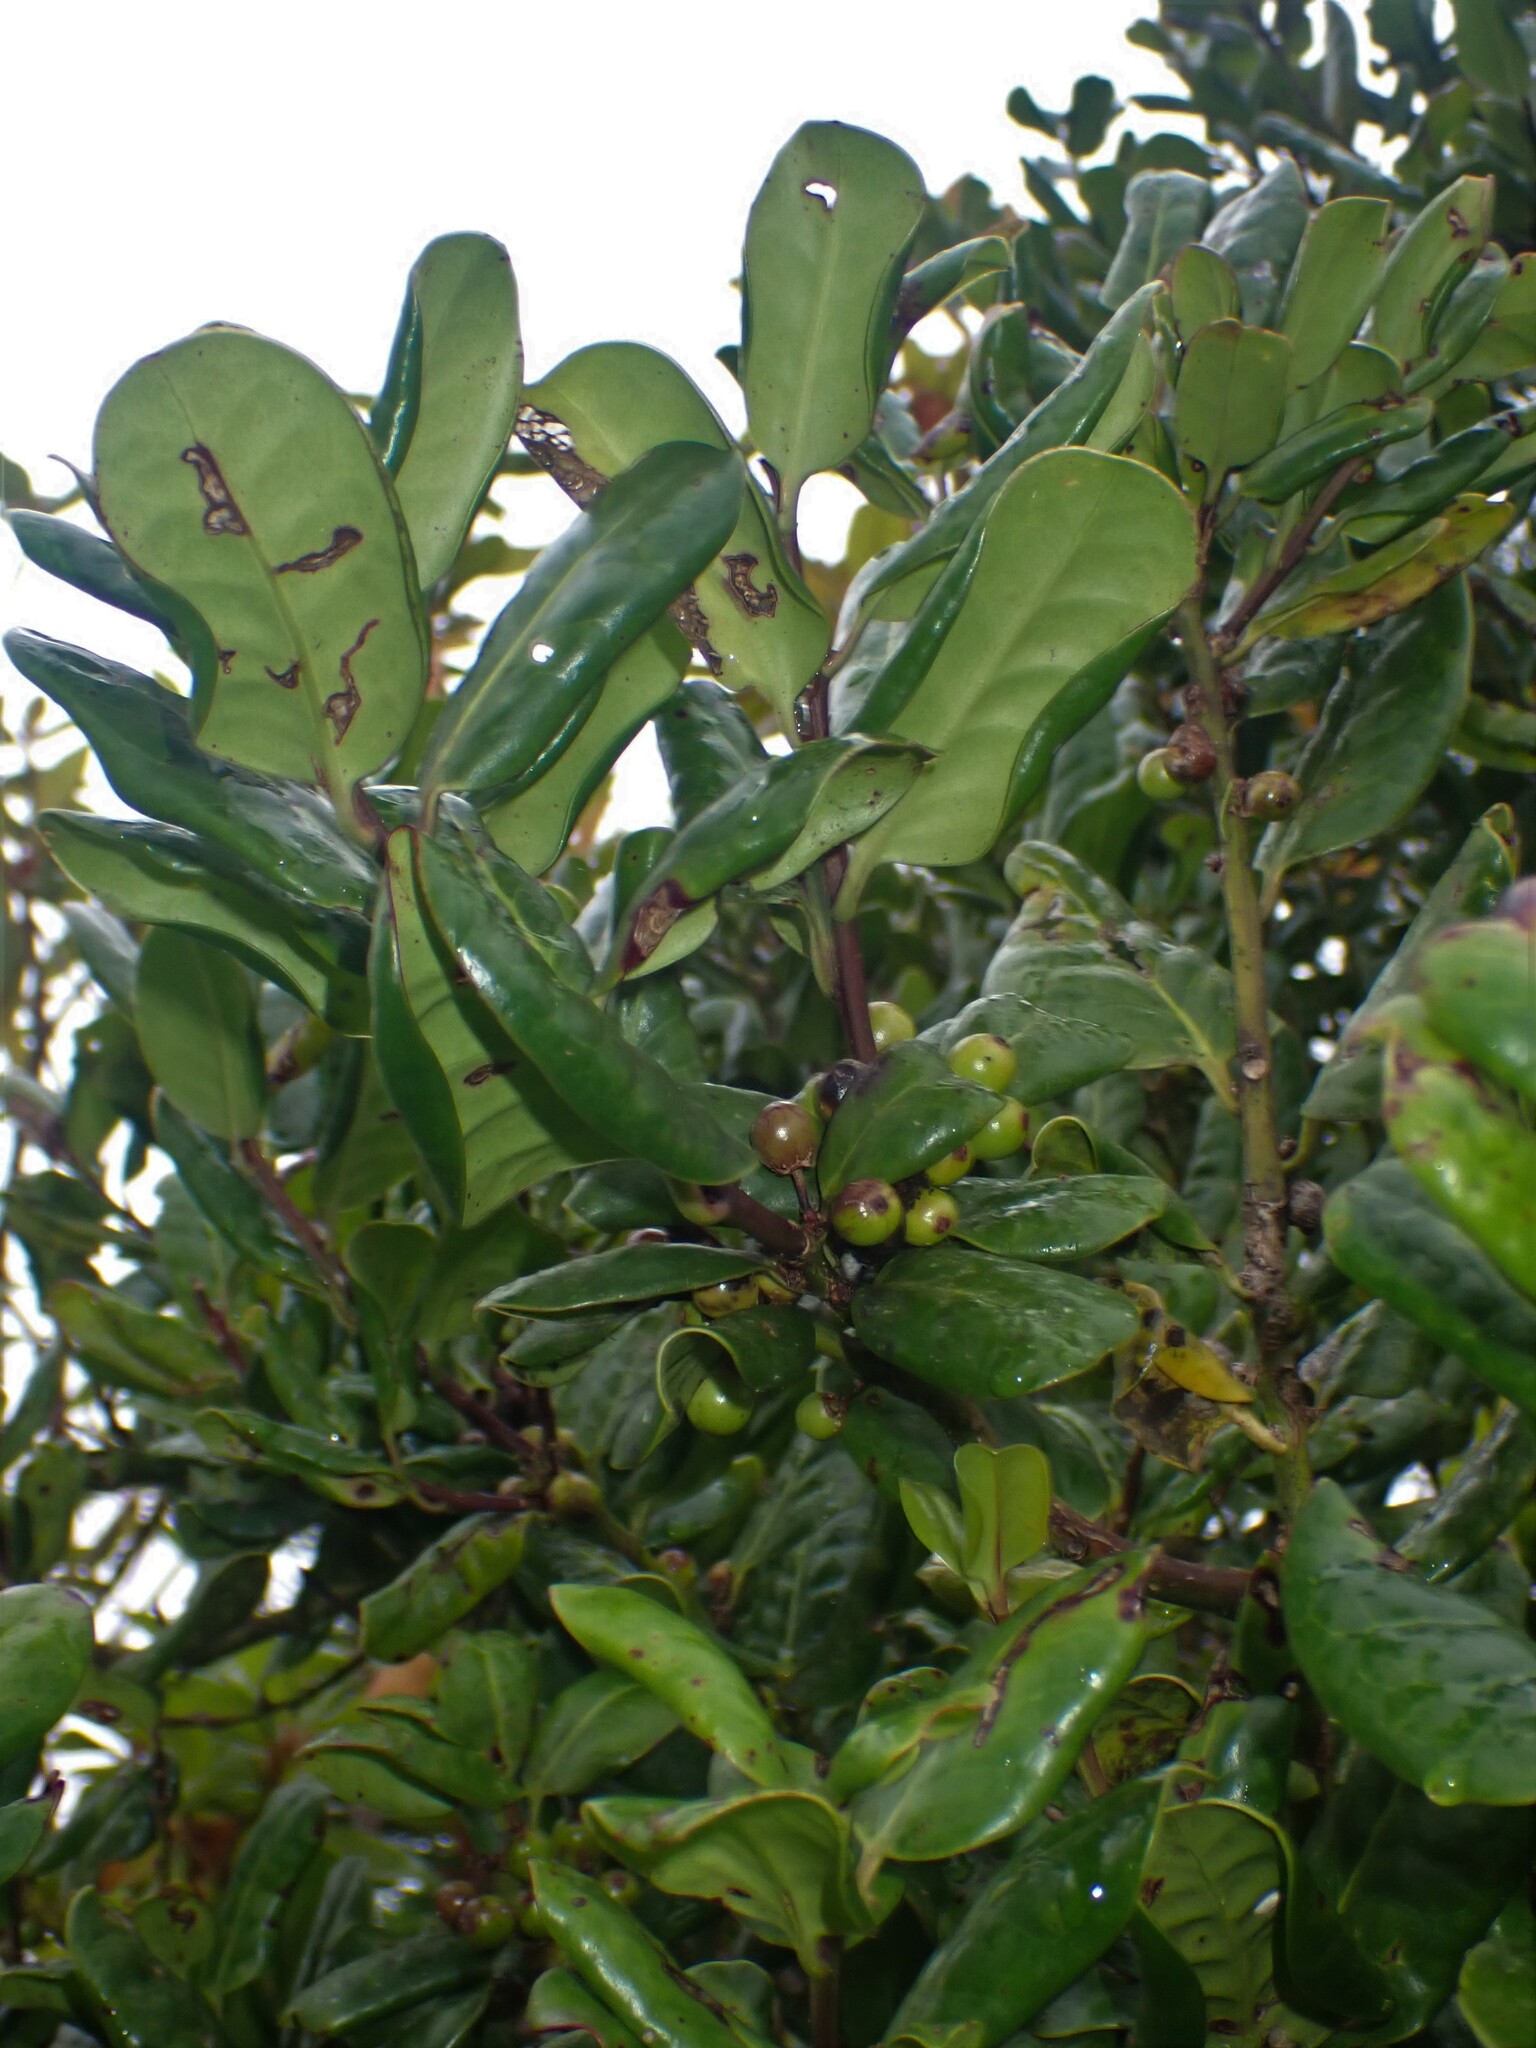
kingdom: Plantae
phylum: Tracheophyta
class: Magnoliopsida
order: Aquifoliales
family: Aquifoliaceae
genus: Ilex
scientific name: Ilex perado
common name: Madeira holly
